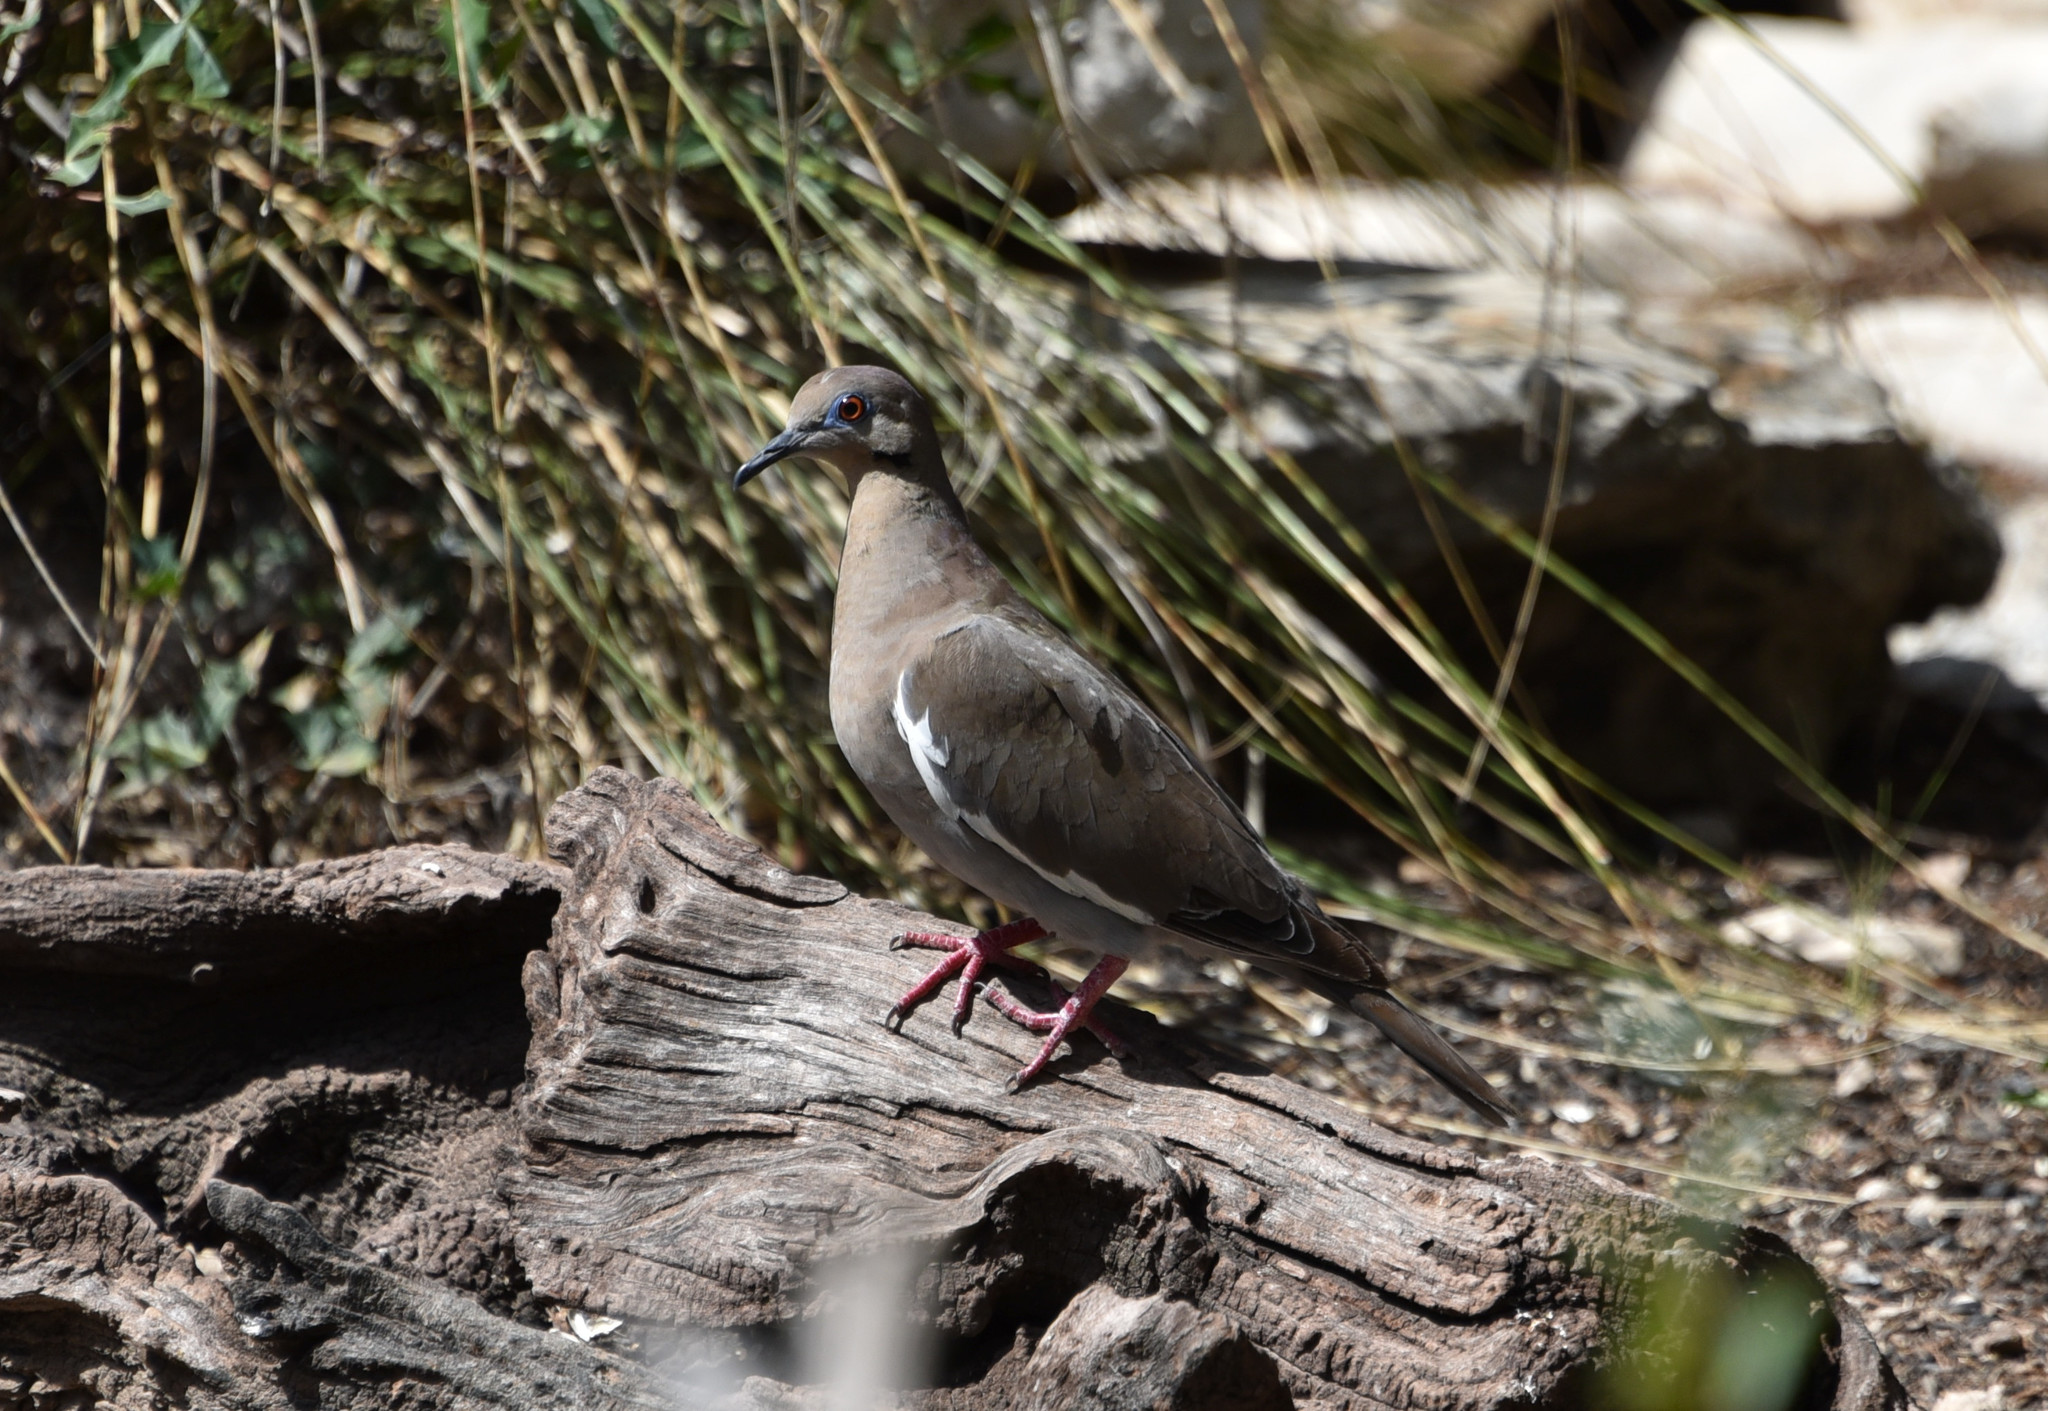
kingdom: Animalia
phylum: Chordata
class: Aves
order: Columbiformes
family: Columbidae
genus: Zenaida
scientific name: Zenaida asiatica
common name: White-winged dove
